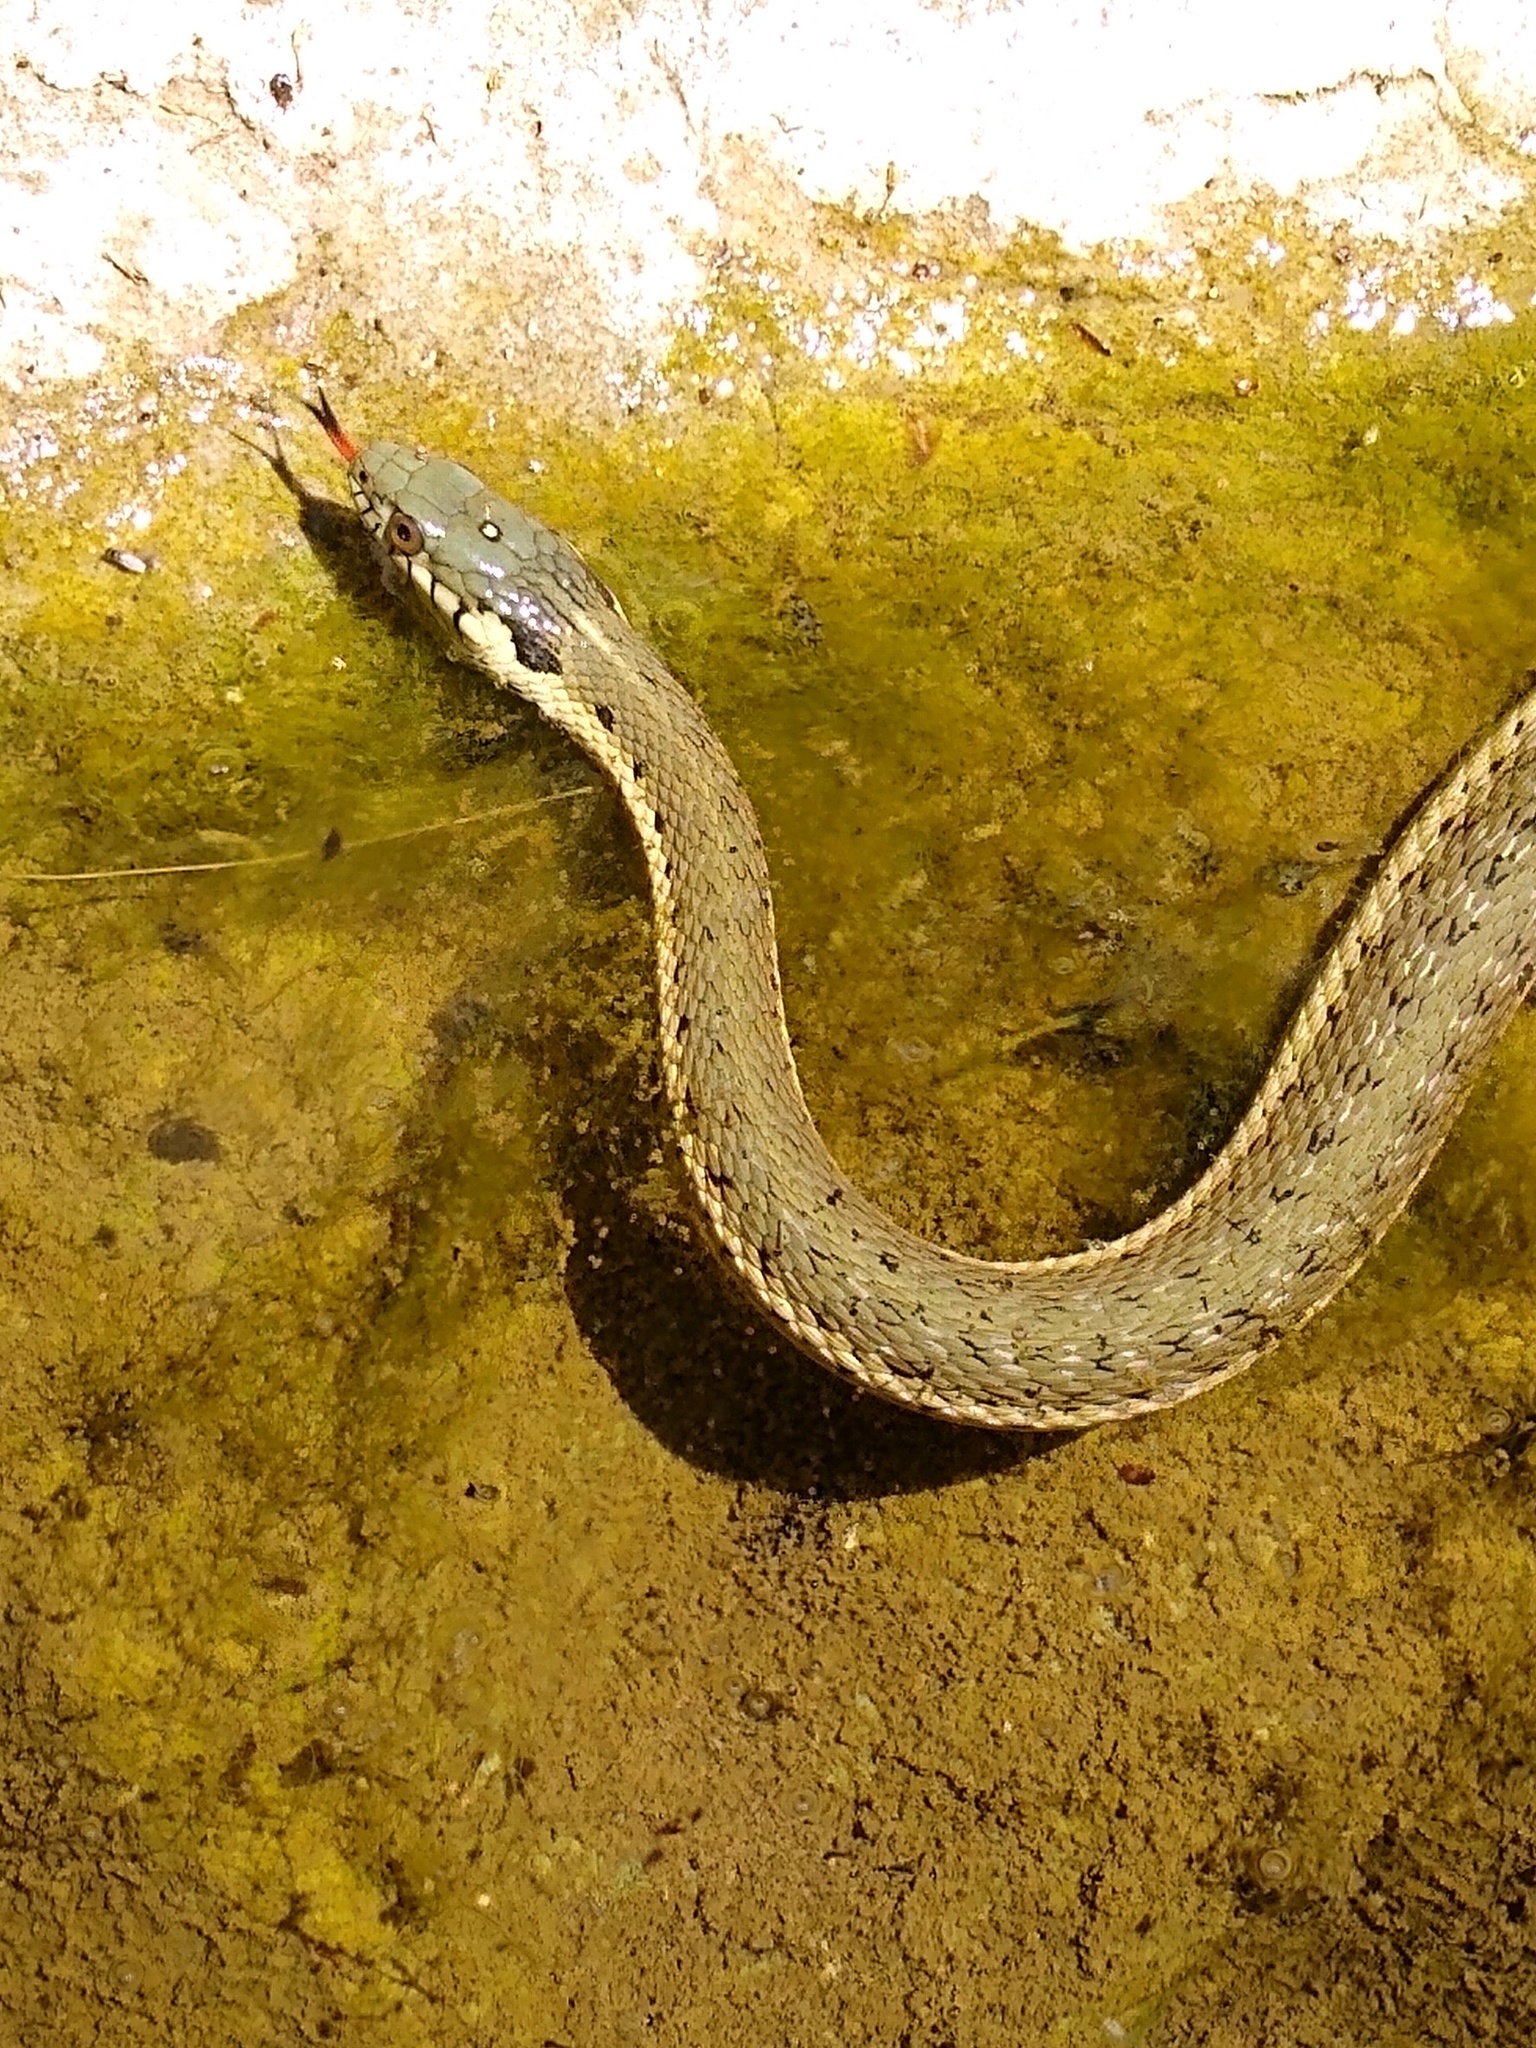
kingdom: Animalia
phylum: Chordata
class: Squamata
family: Colubridae
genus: Thamnophis
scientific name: Thamnophis hammondii
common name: Two-striped garter snake
